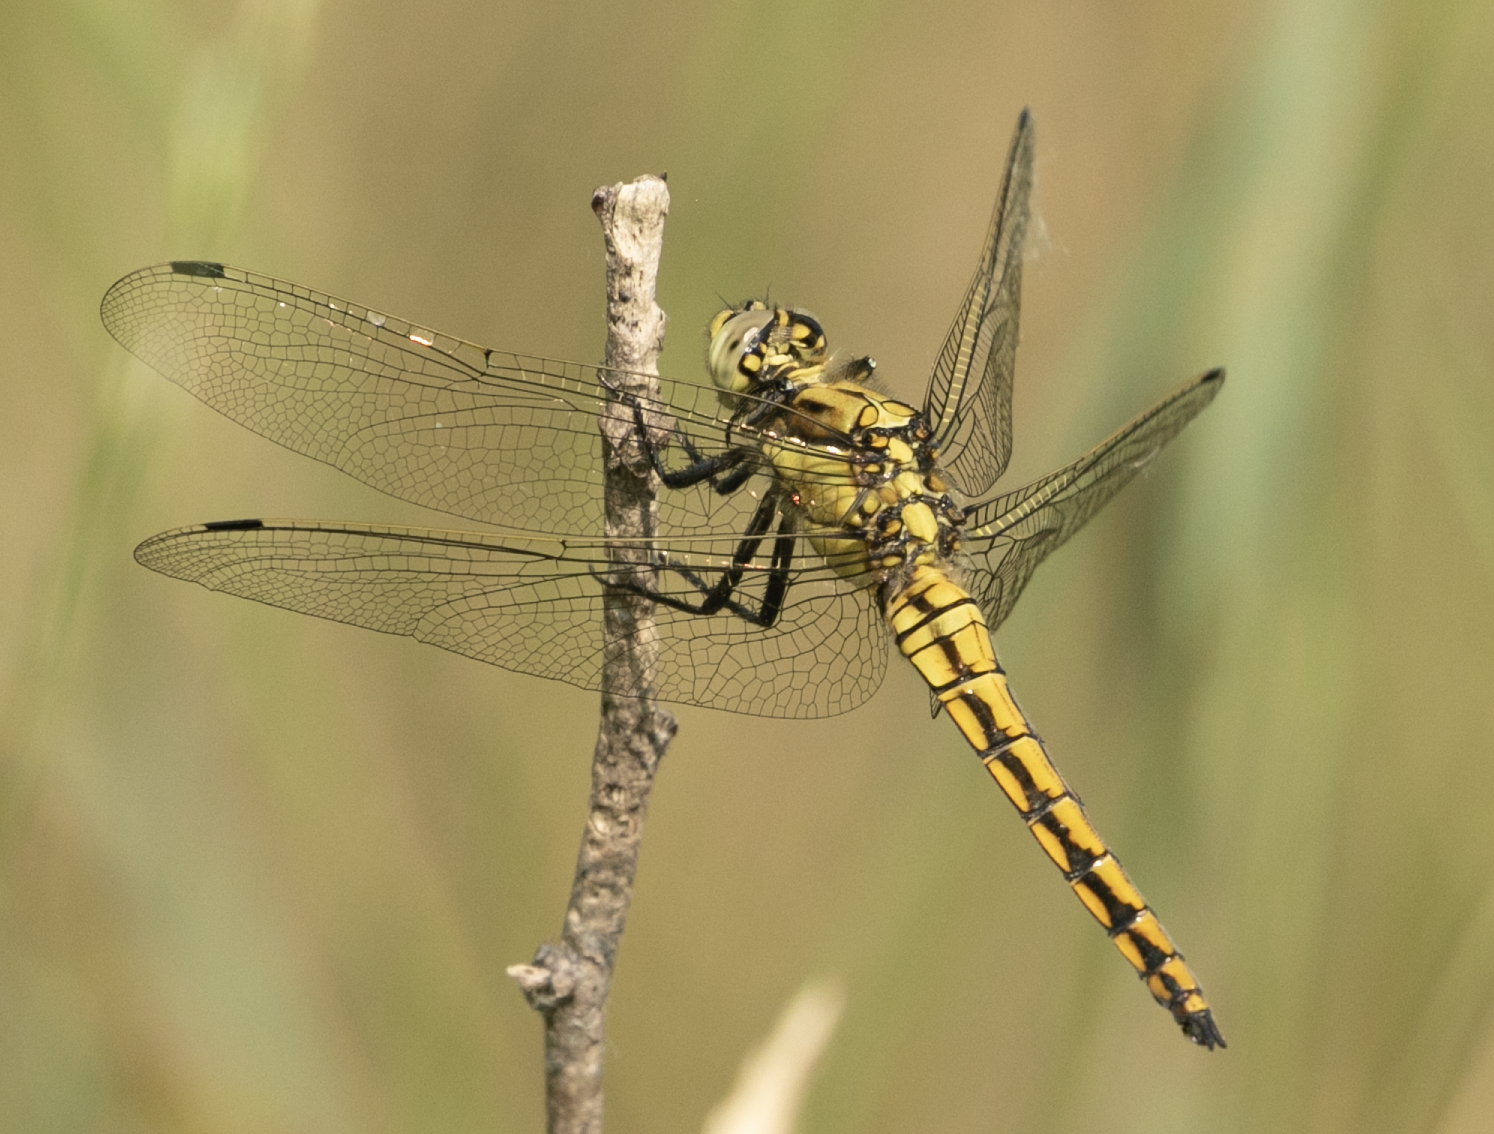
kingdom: Animalia
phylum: Arthropoda
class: Insecta
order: Odonata
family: Libellulidae
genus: Orthetrum
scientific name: Orthetrum cancellatum
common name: Black-tailed skimmer
